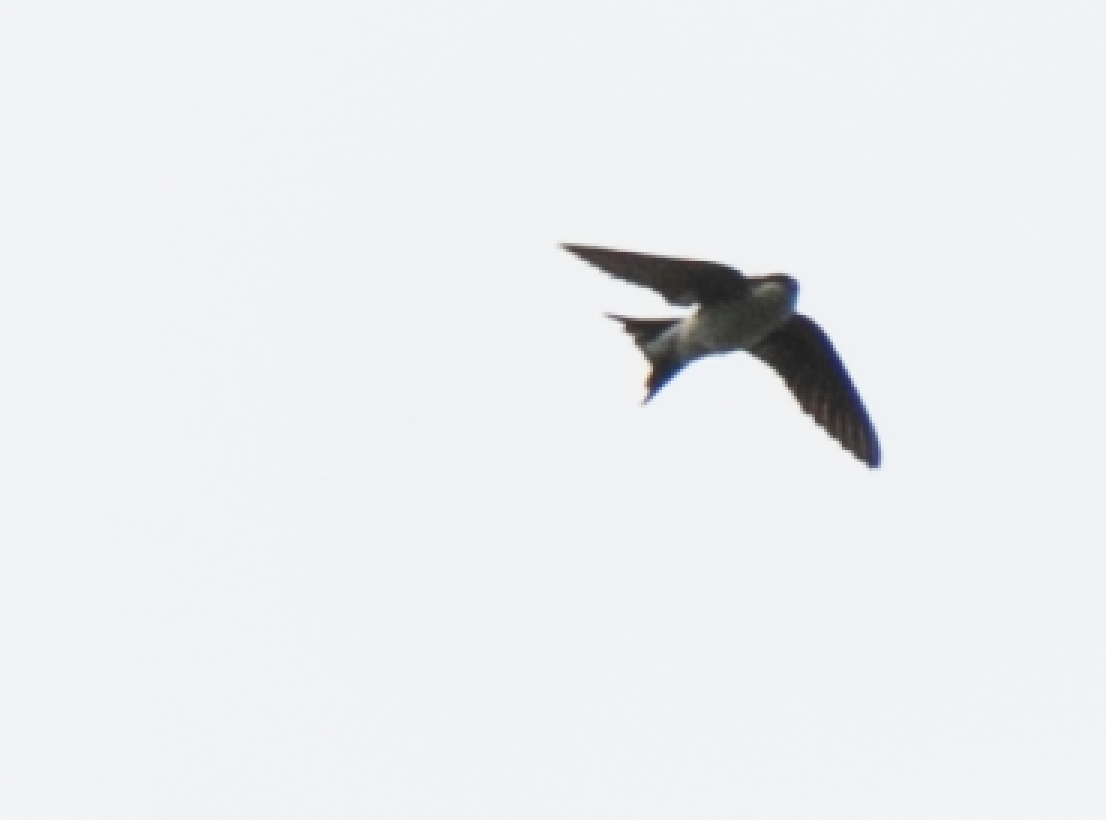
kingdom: Animalia
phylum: Chordata
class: Aves
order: Passeriformes
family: Hirundinidae
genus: Delichon
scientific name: Delichon urbicum
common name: Common house martin
